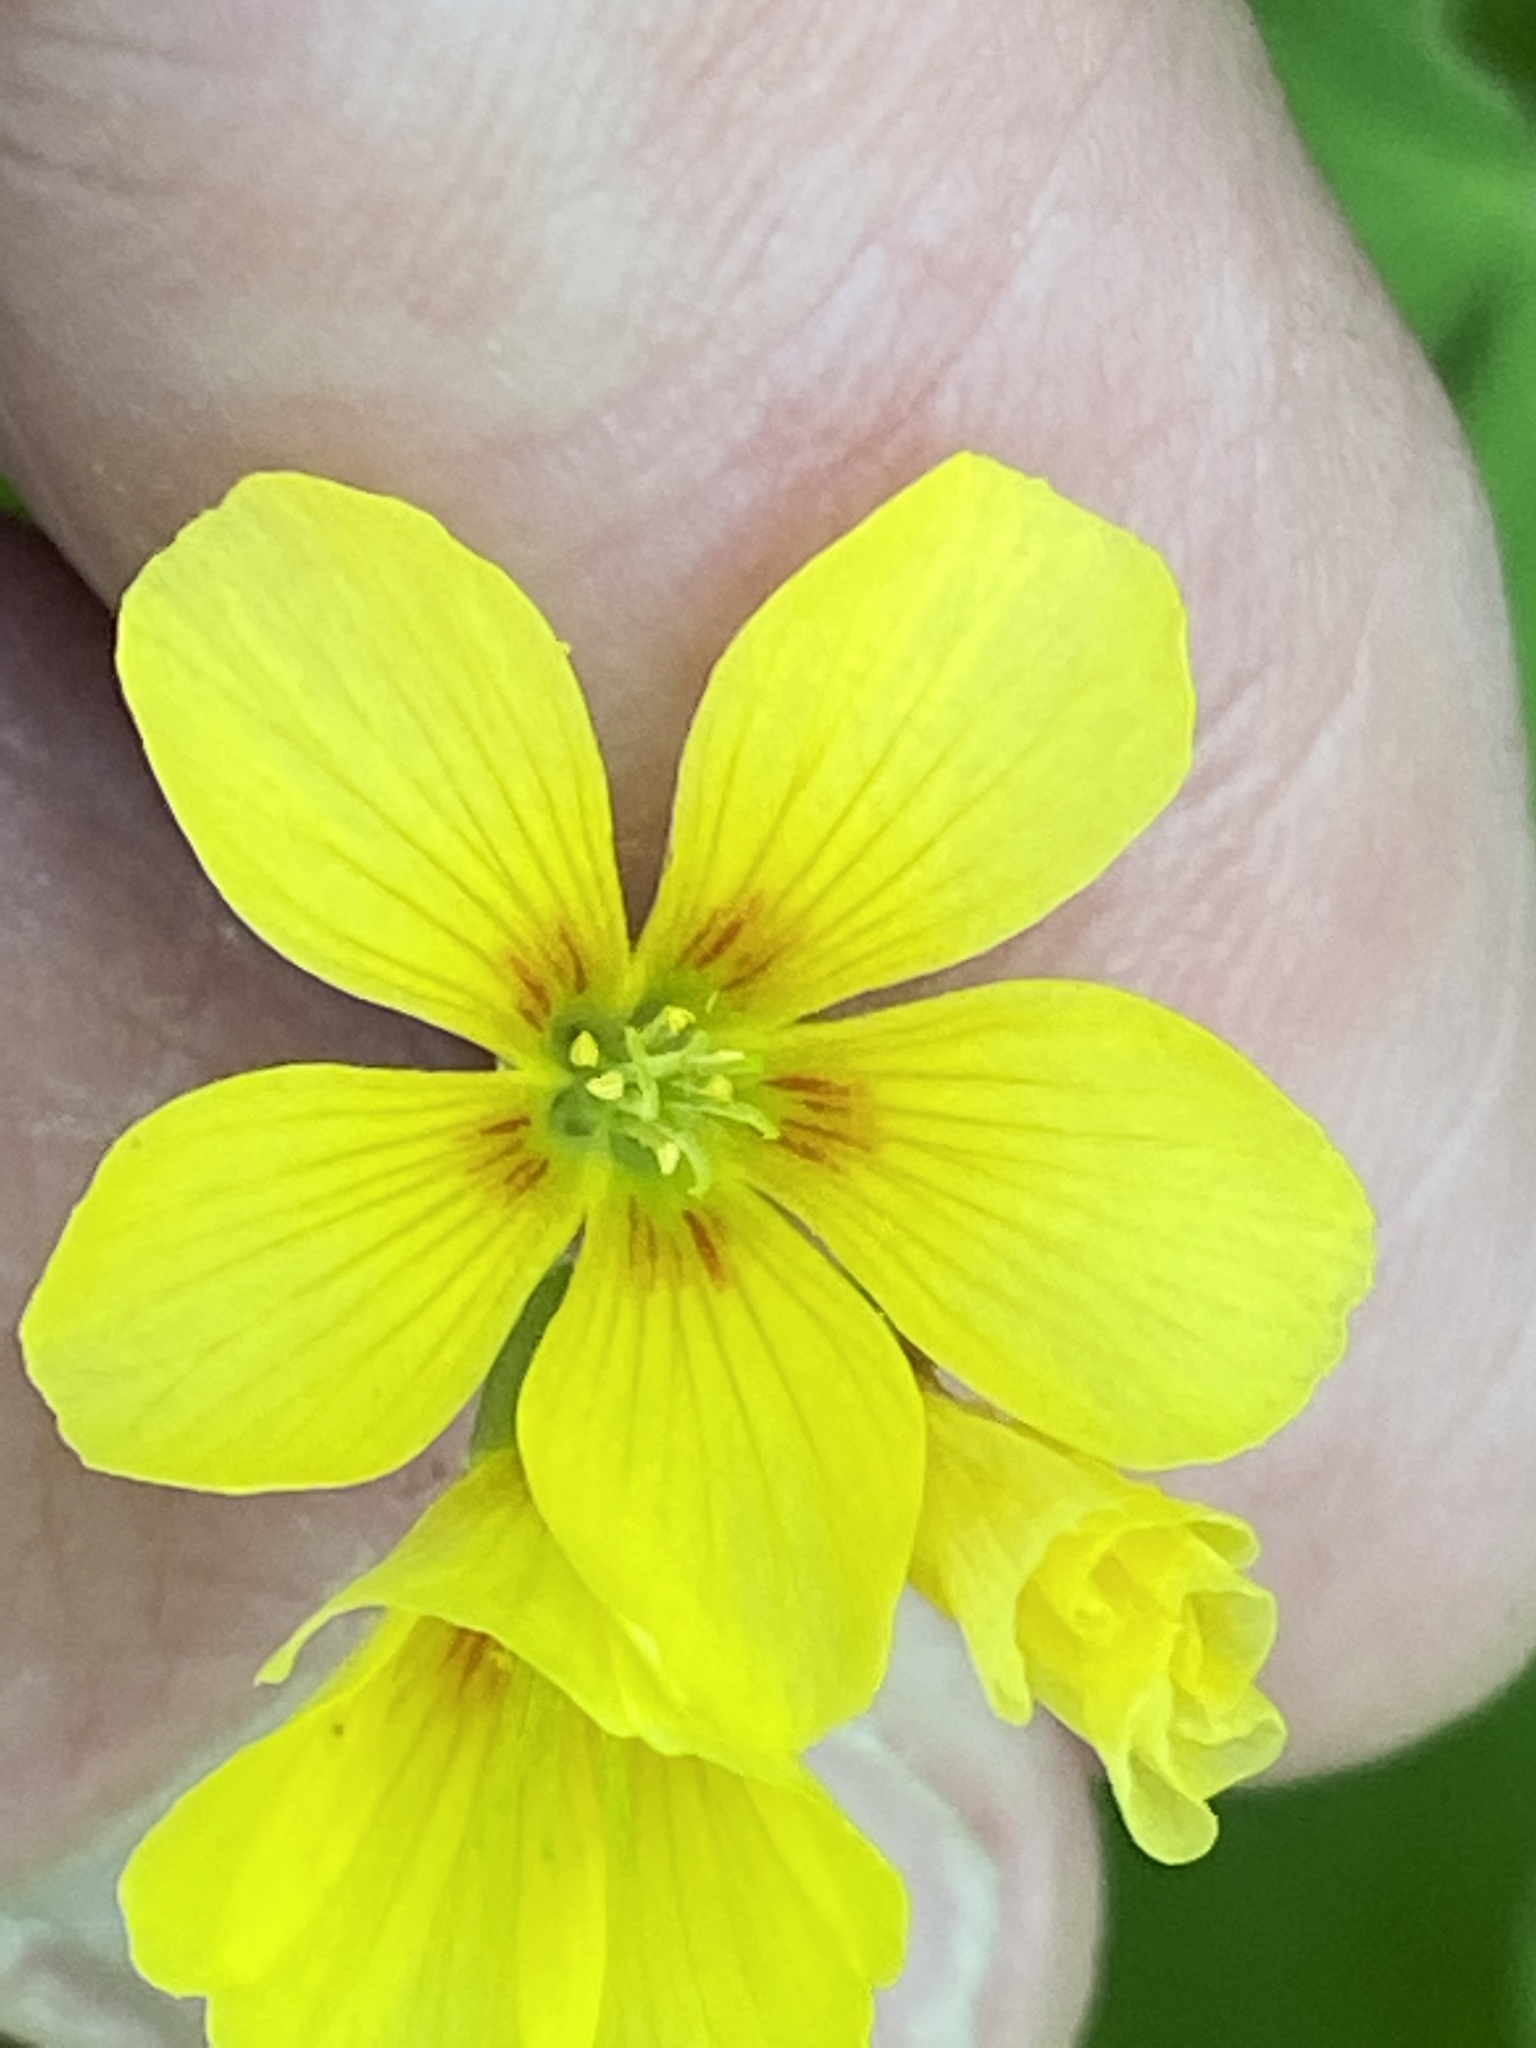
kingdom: Plantae
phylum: Tracheophyta
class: Magnoliopsida
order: Oxalidales
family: Oxalidaceae
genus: Oxalis
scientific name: Oxalis grandis
